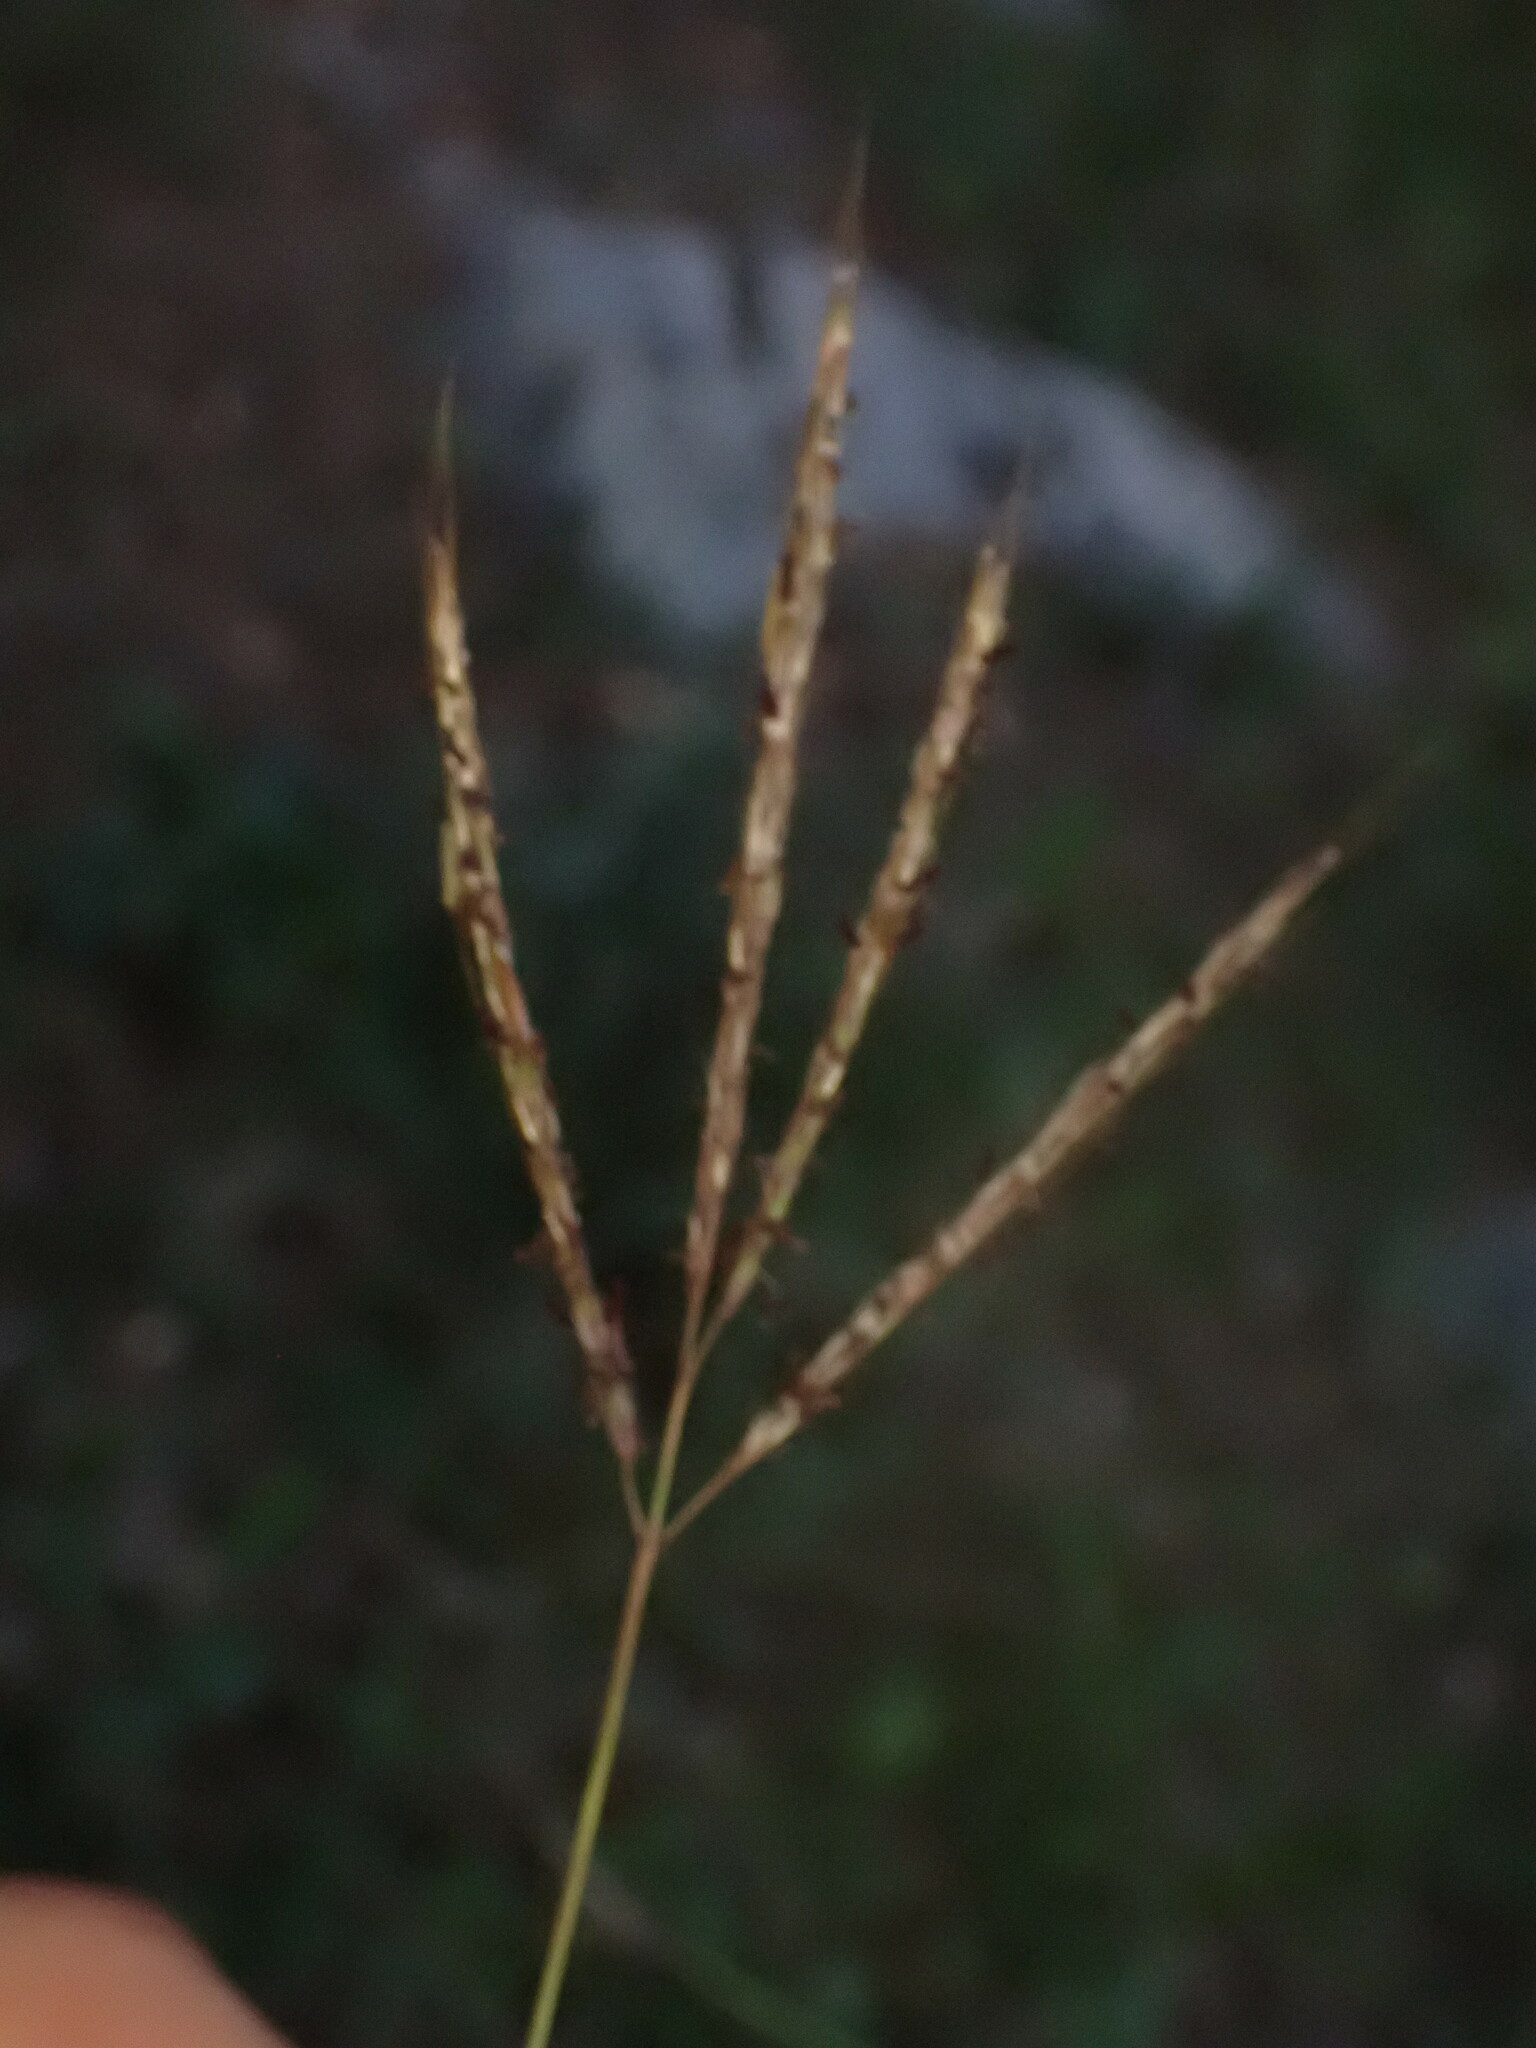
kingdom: Plantae
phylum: Tracheophyta
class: Liliopsida
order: Poales
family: Poaceae
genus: Bothriochloa
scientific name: Bothriochloa ischaemum
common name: Yellow bluestem
